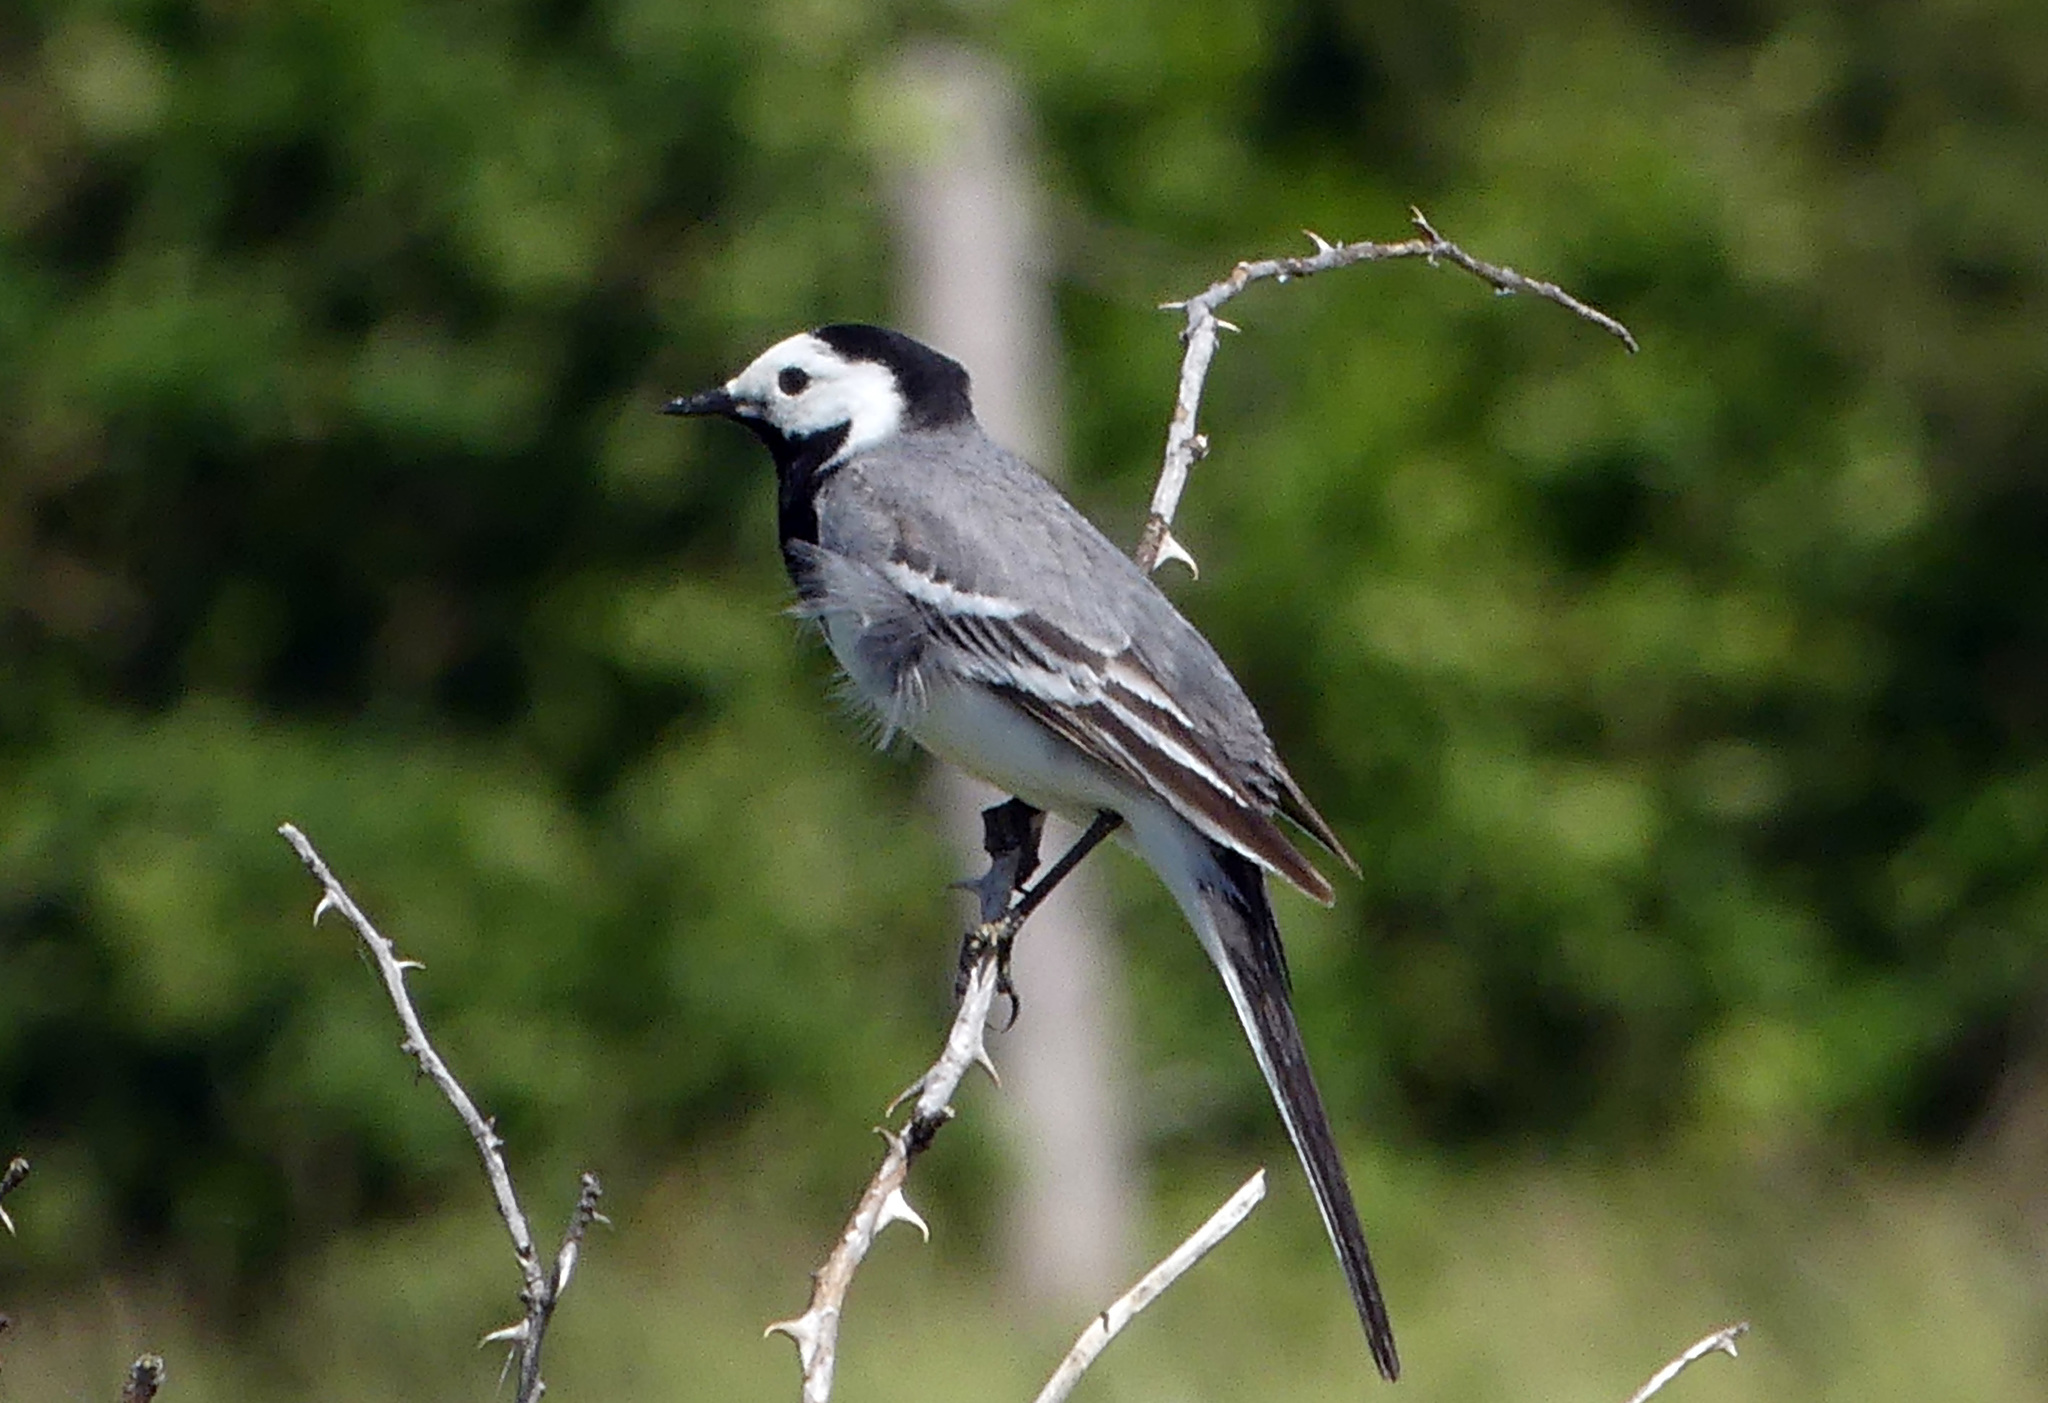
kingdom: Animalia
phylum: Chordata
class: Aves
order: Passeriformes
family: Motacillidae
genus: Motacilla
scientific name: Motacilla alba
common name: White wagtail
